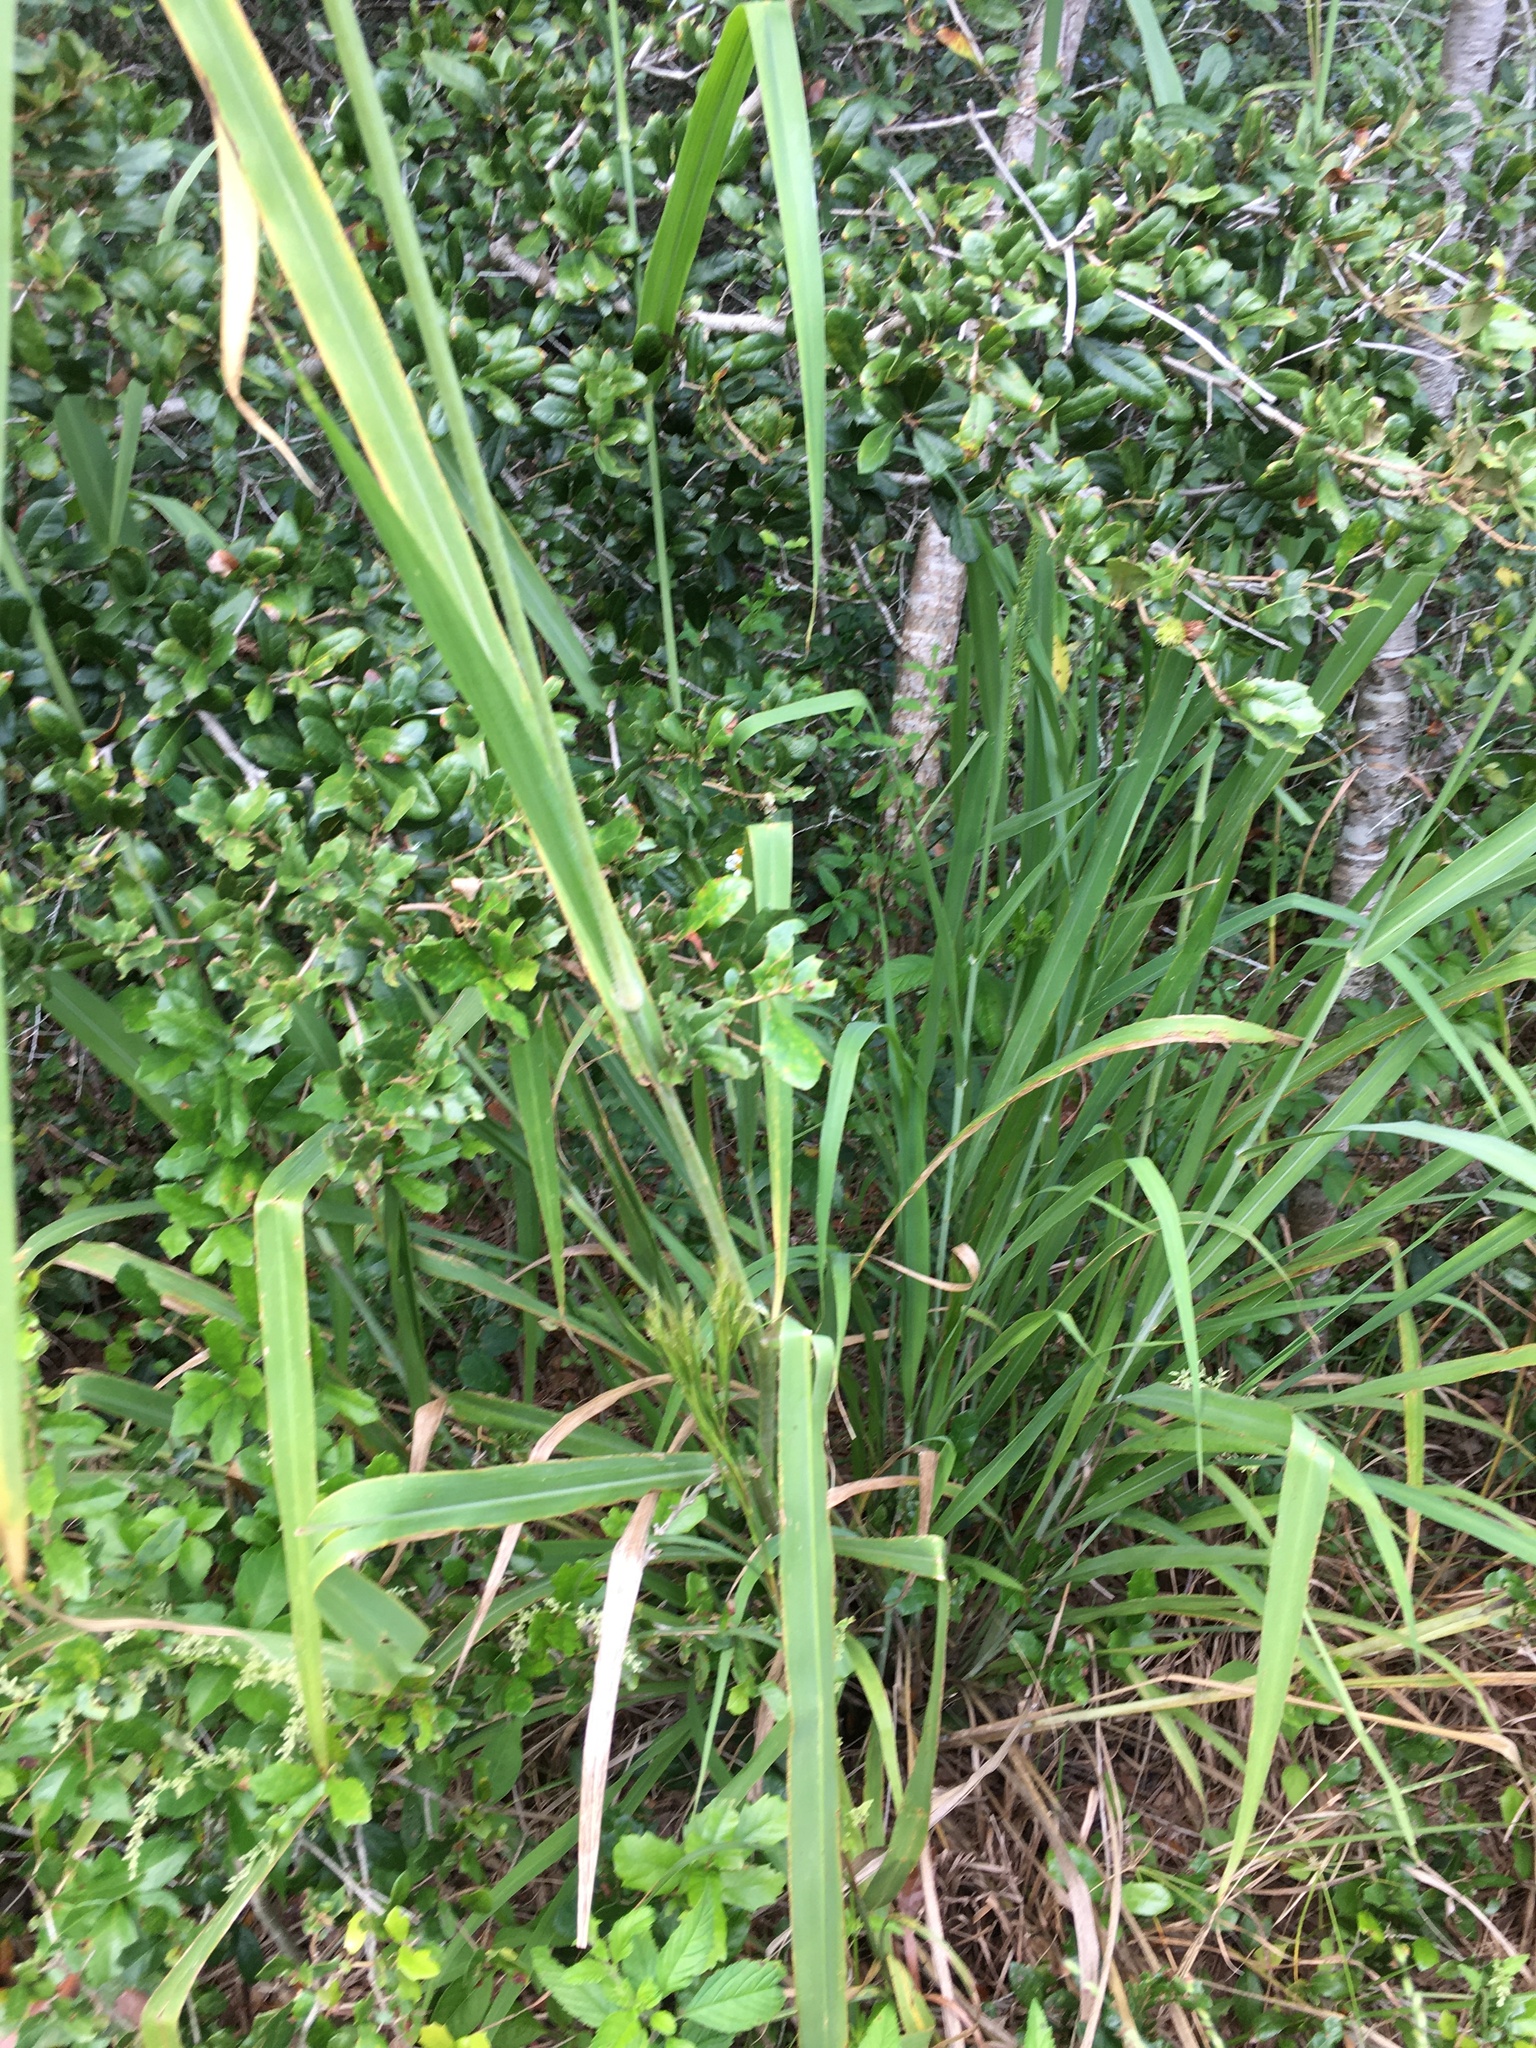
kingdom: Plantae
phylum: Tracheophyta
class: Liliopsida
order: Poales
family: Poaceae
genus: Megathyrsus
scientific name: Megathyrsus maximus
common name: Guineagrass
